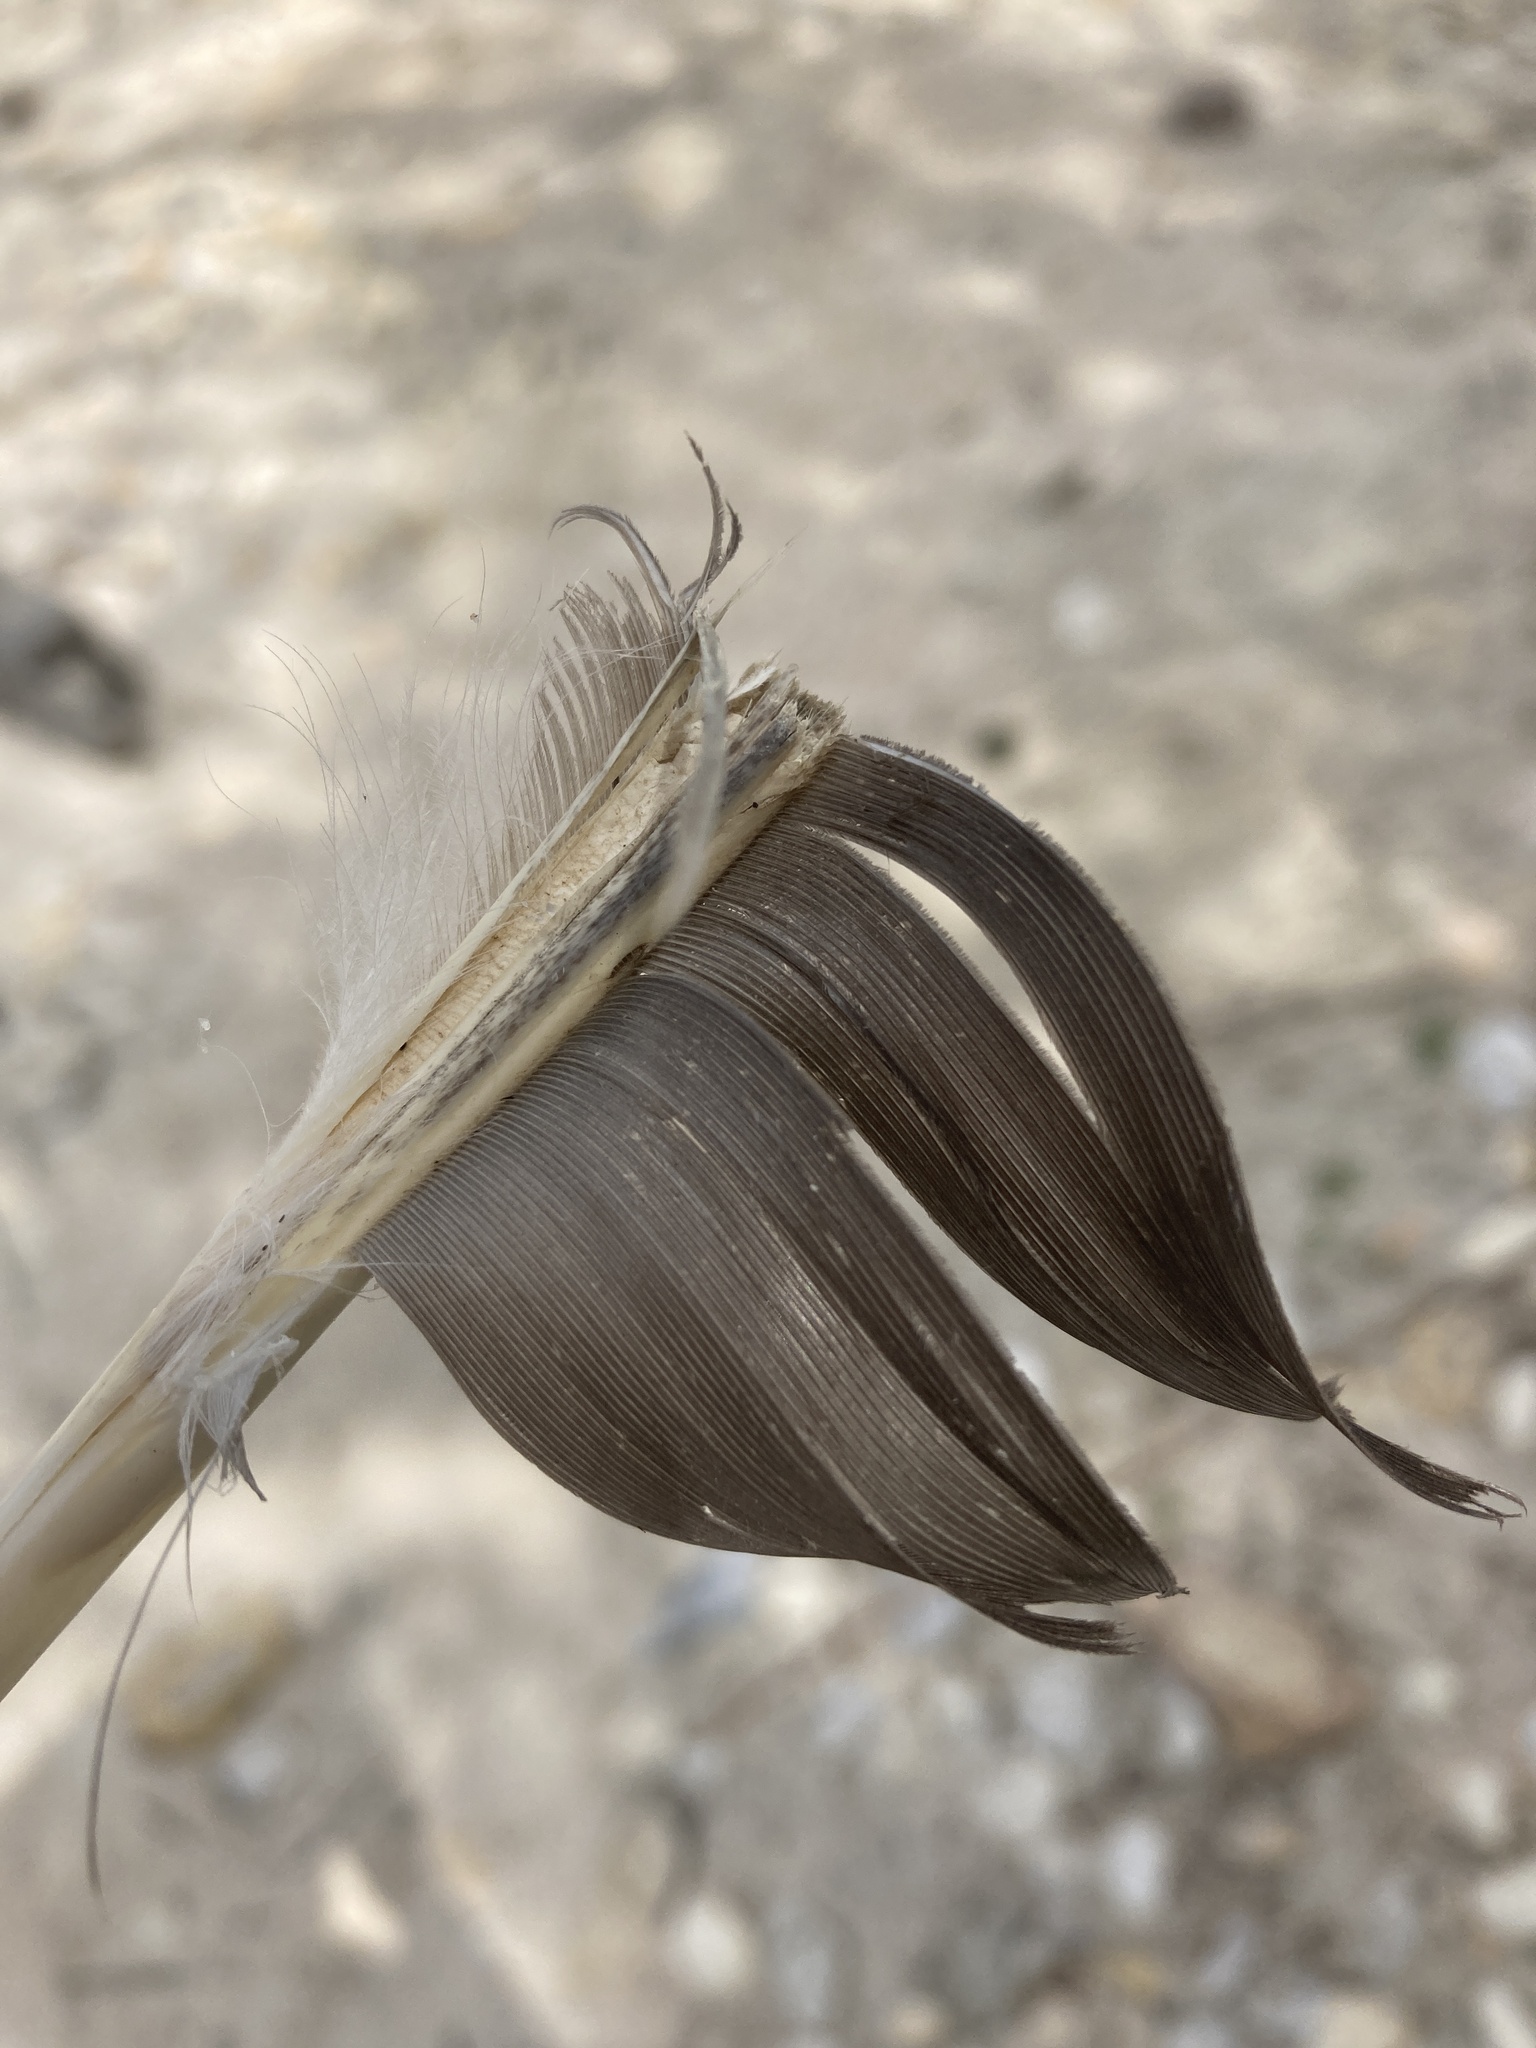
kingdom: Animalia
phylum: Chordata
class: Aves
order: Anseriformes
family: Anatidae
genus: Branta
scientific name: Branta canadensis
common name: Canada goose
